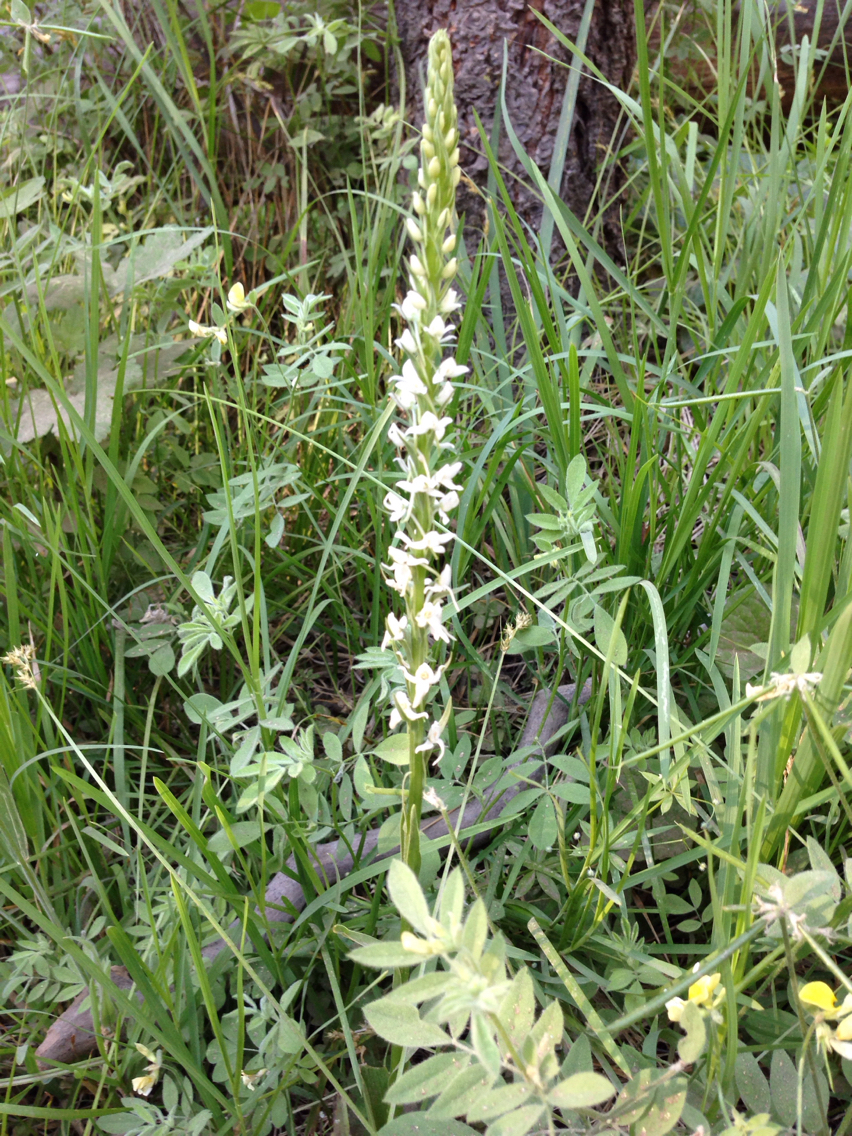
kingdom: Plantae
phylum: Tracheophyta
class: Liliopsida
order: Asparagales
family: Orchidaceae
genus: Platanthera
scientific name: Platanthera dilatata
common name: Bog candles
